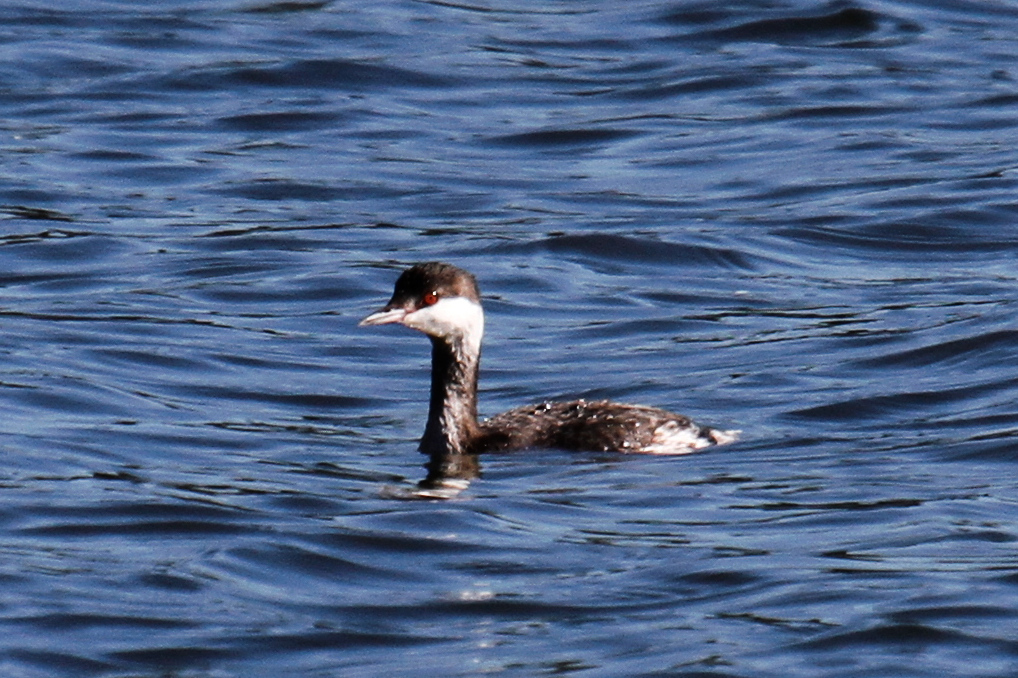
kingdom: Animalia
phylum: Chordata
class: Aves
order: Podicipediformes
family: Podicipedidae
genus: Podiceps
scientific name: Podiceps auritus
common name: Horned grebe
